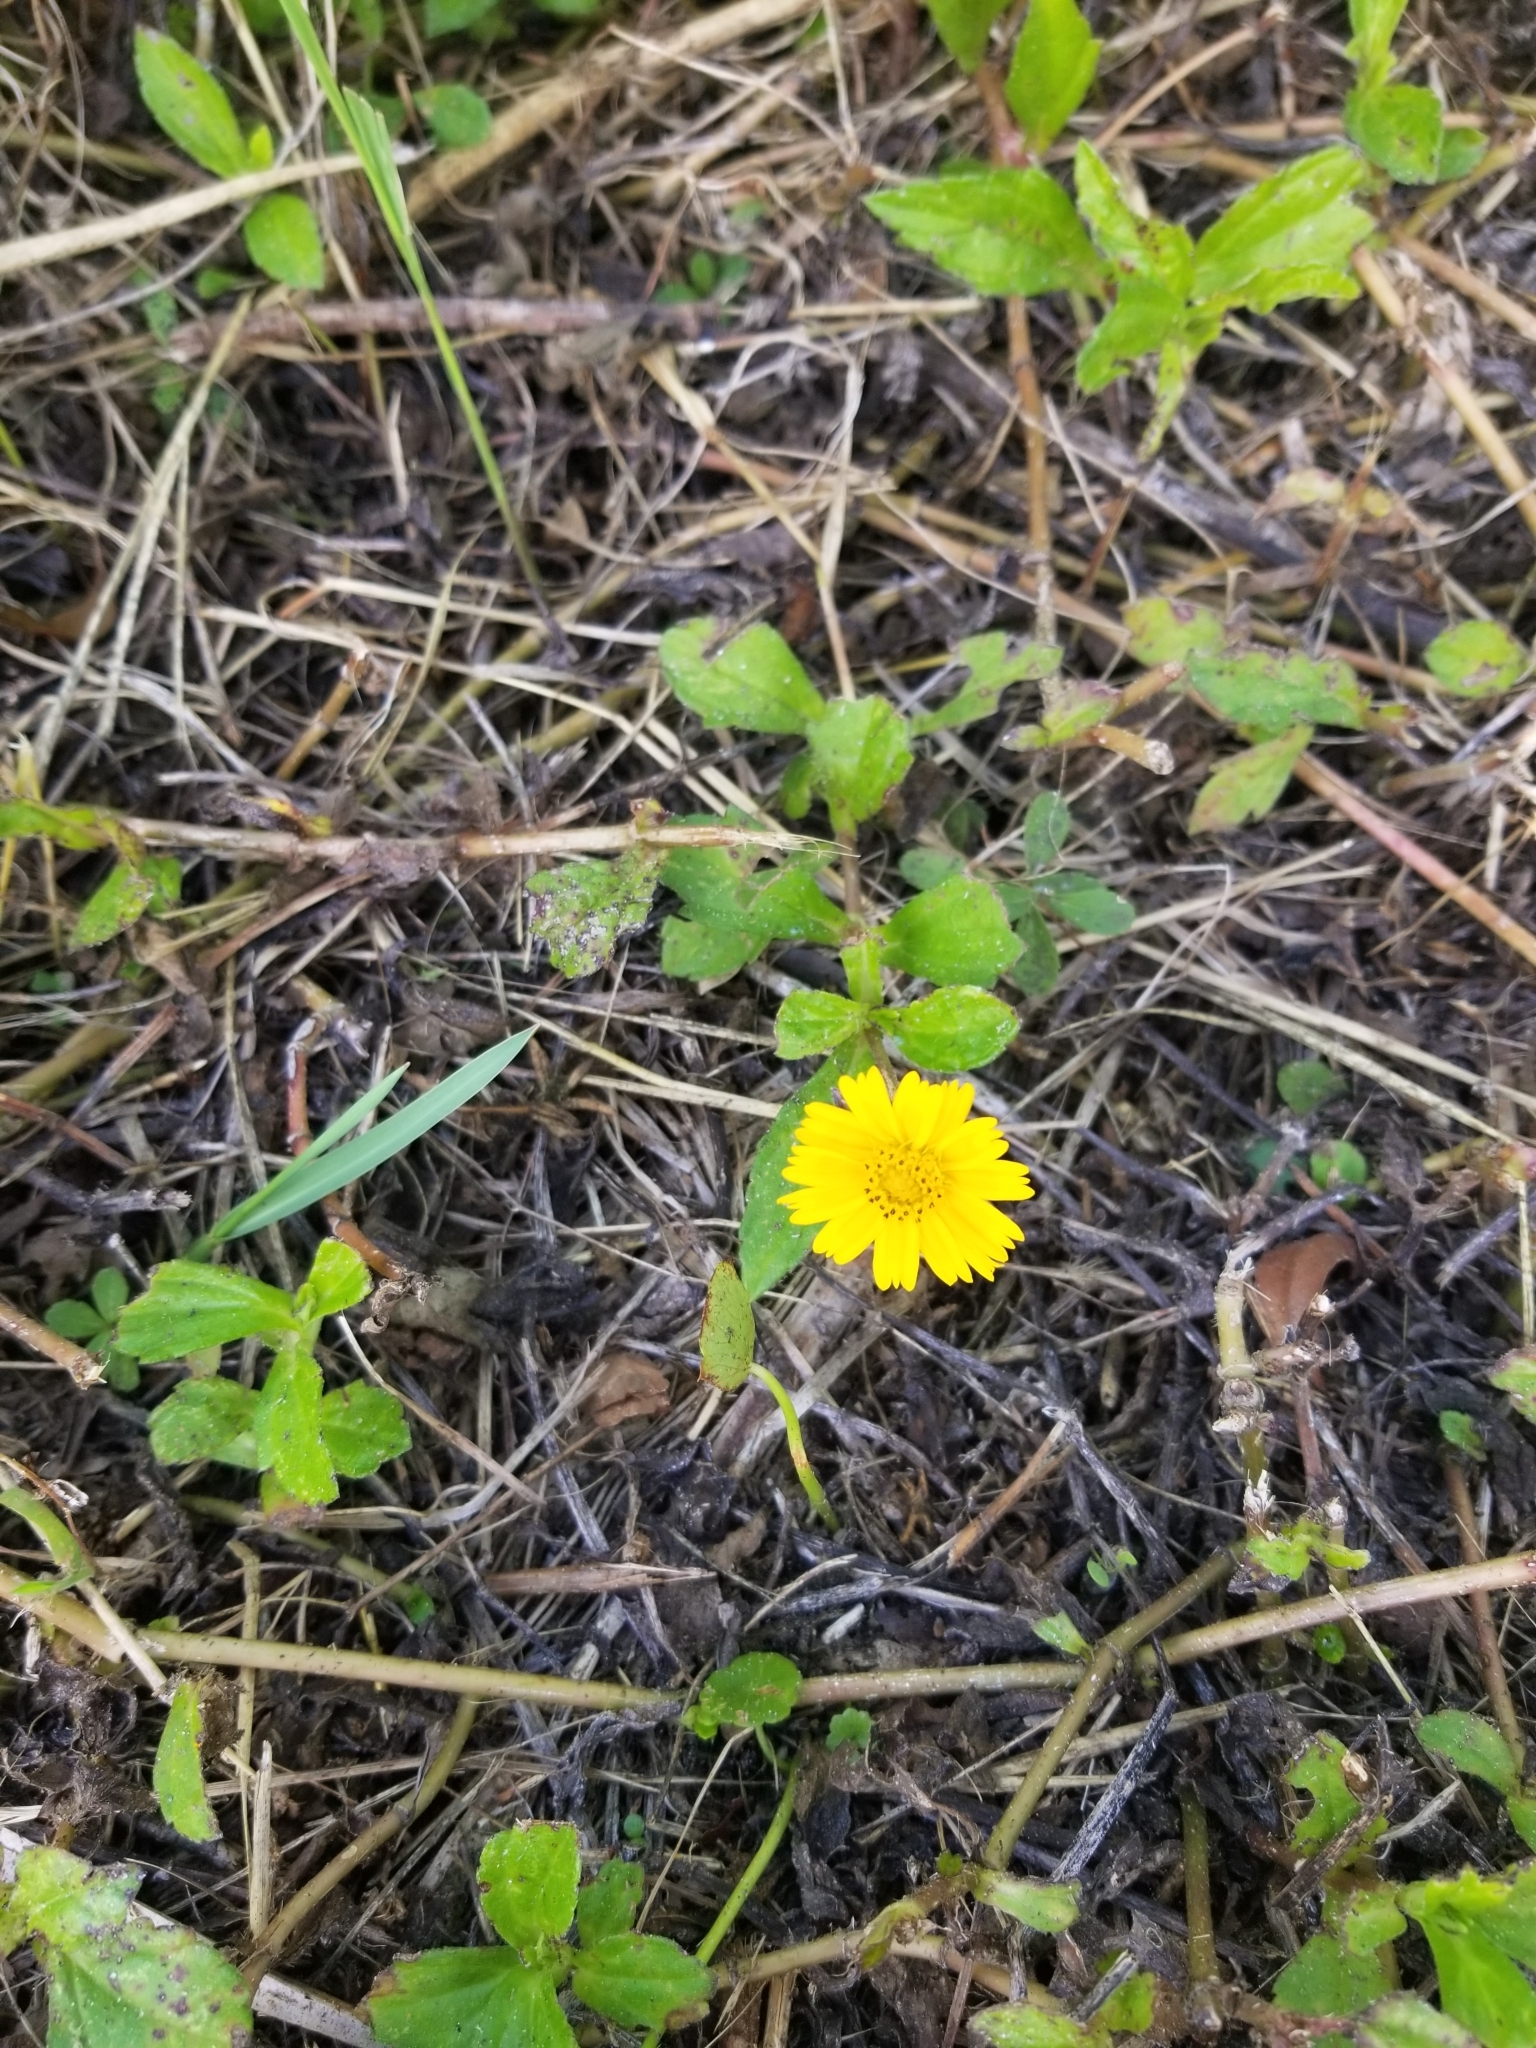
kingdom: Plantae
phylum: Tracheophyta
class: Magnoliopsida
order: Asterales
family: Asteraceae
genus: Sphagneticola
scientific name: Sphagneticola trilobata
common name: Bay biscayne creeping-oxeye
